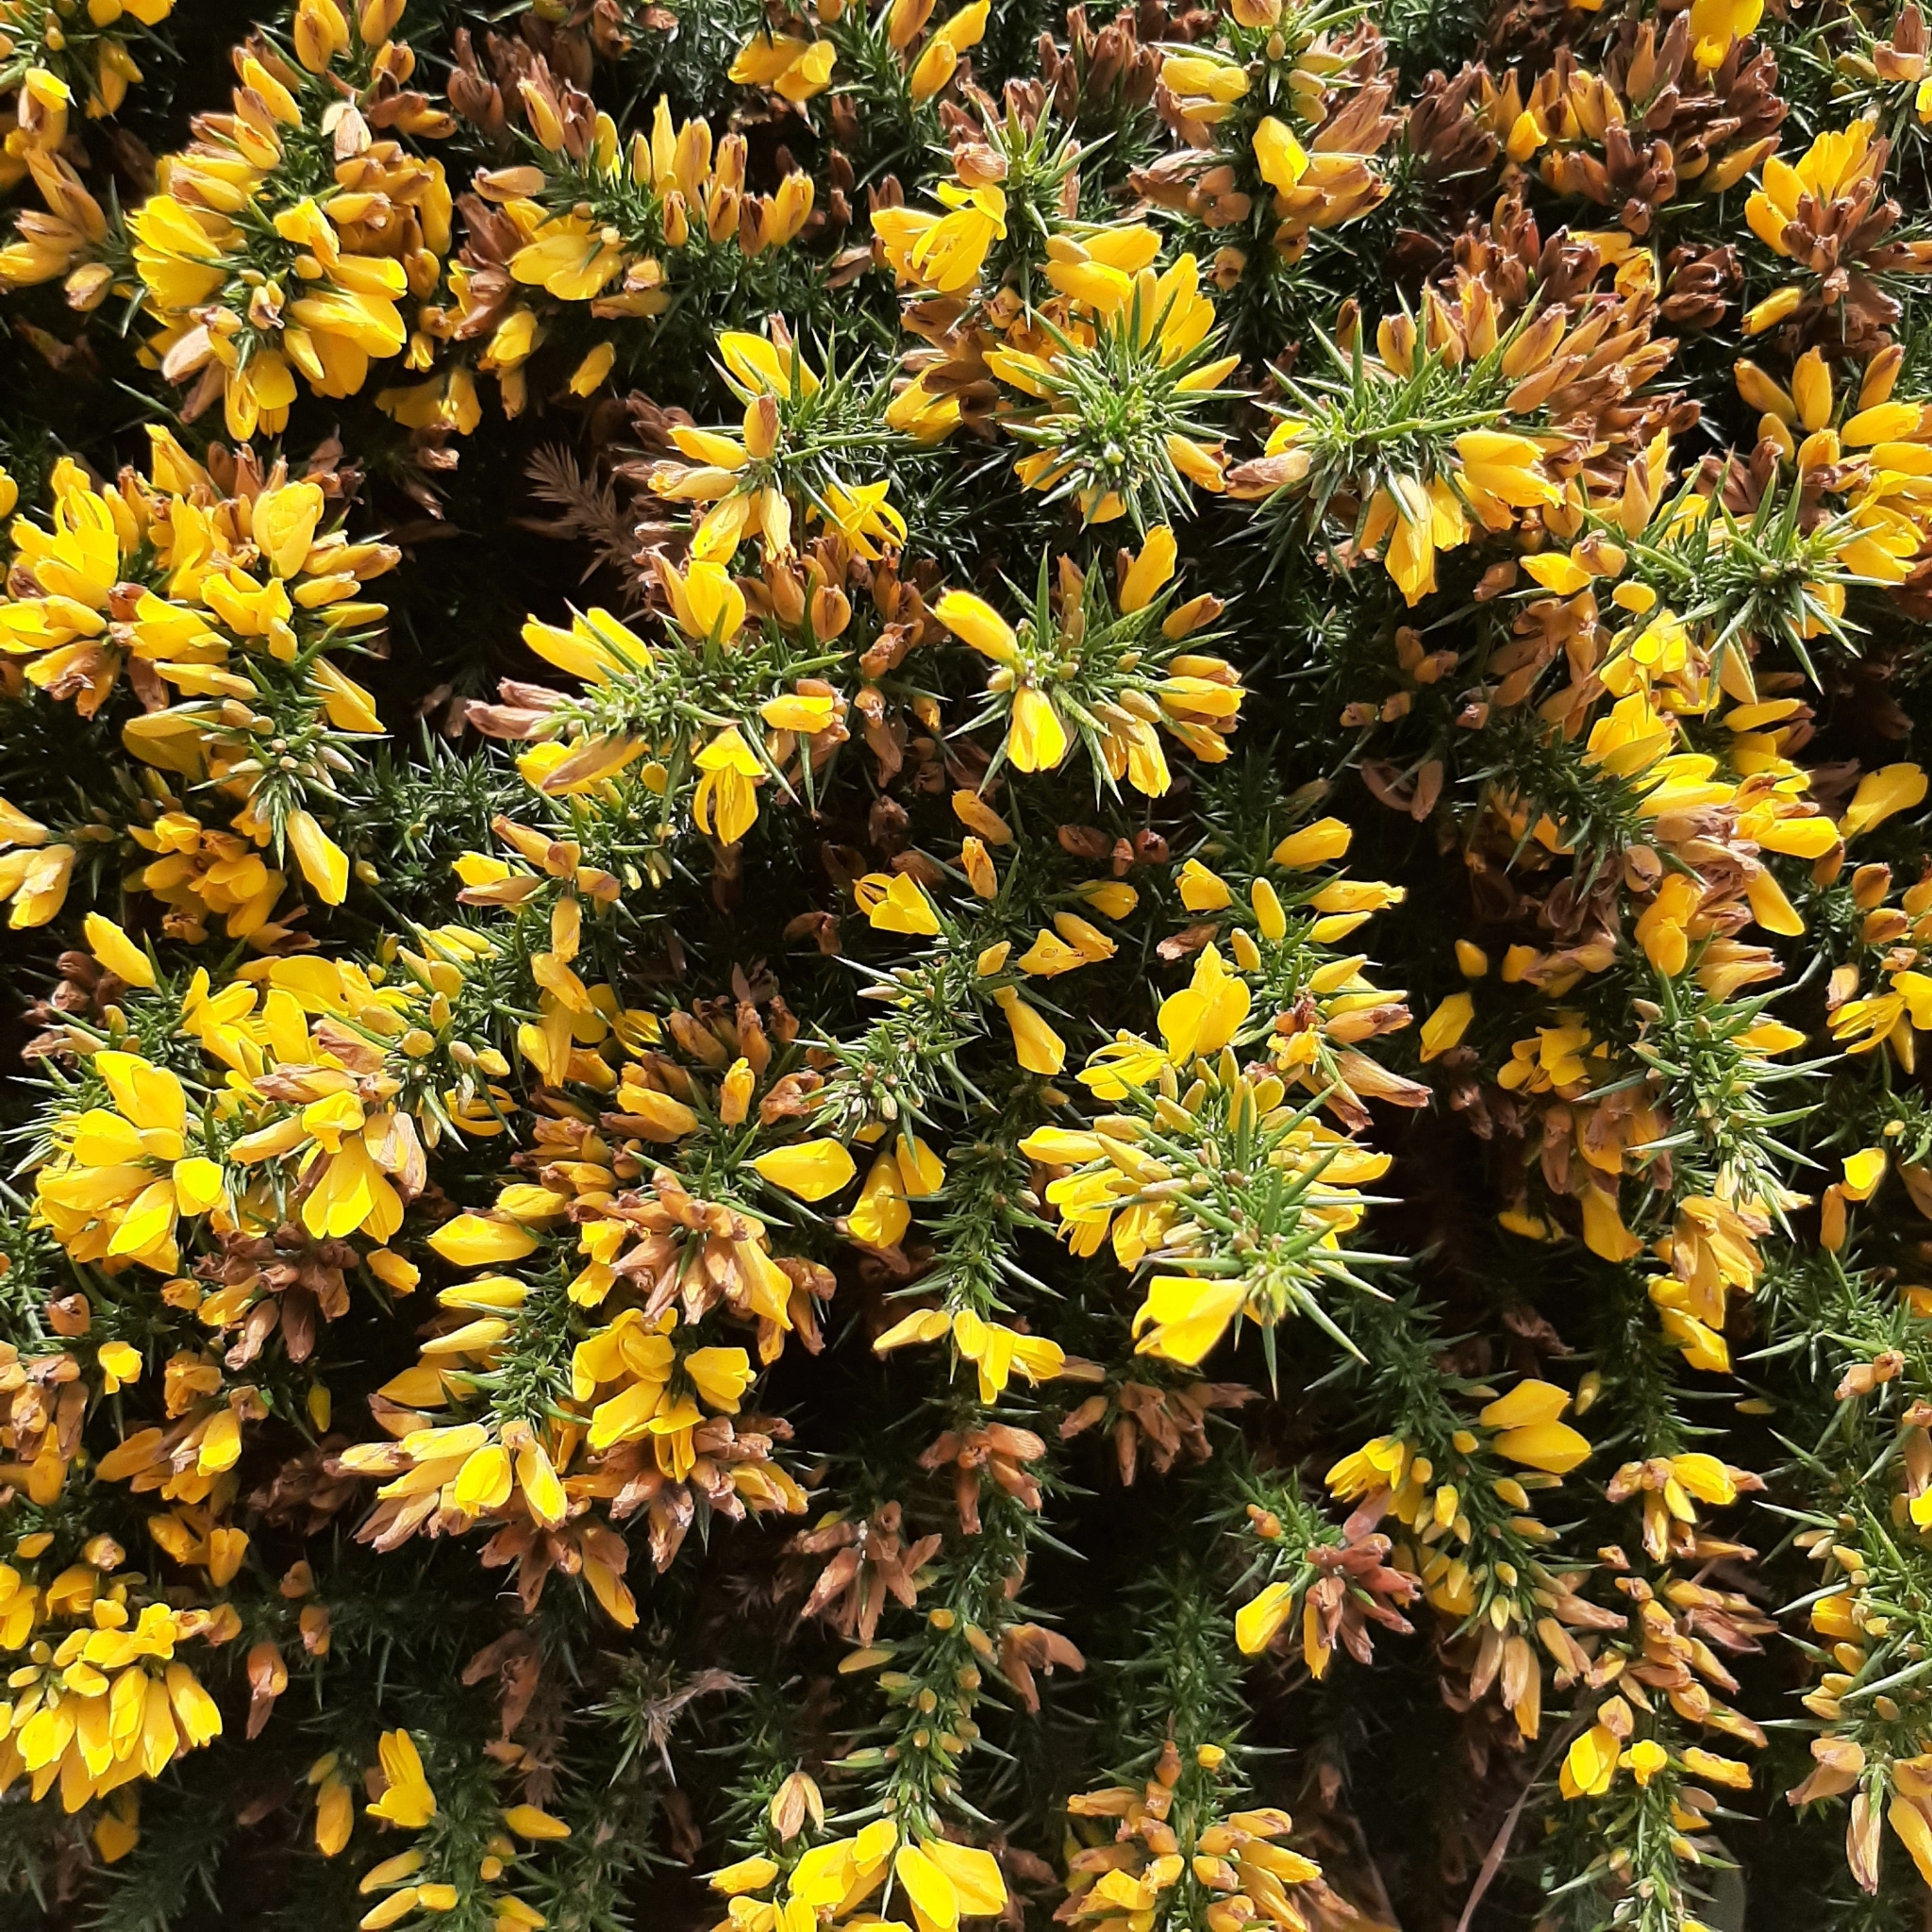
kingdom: Plantae
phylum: Tracheophyta
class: Magnoliopsida
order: Fabales
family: Fabaceae
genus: Ulex
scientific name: Ulex europaeus
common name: Common gorse
